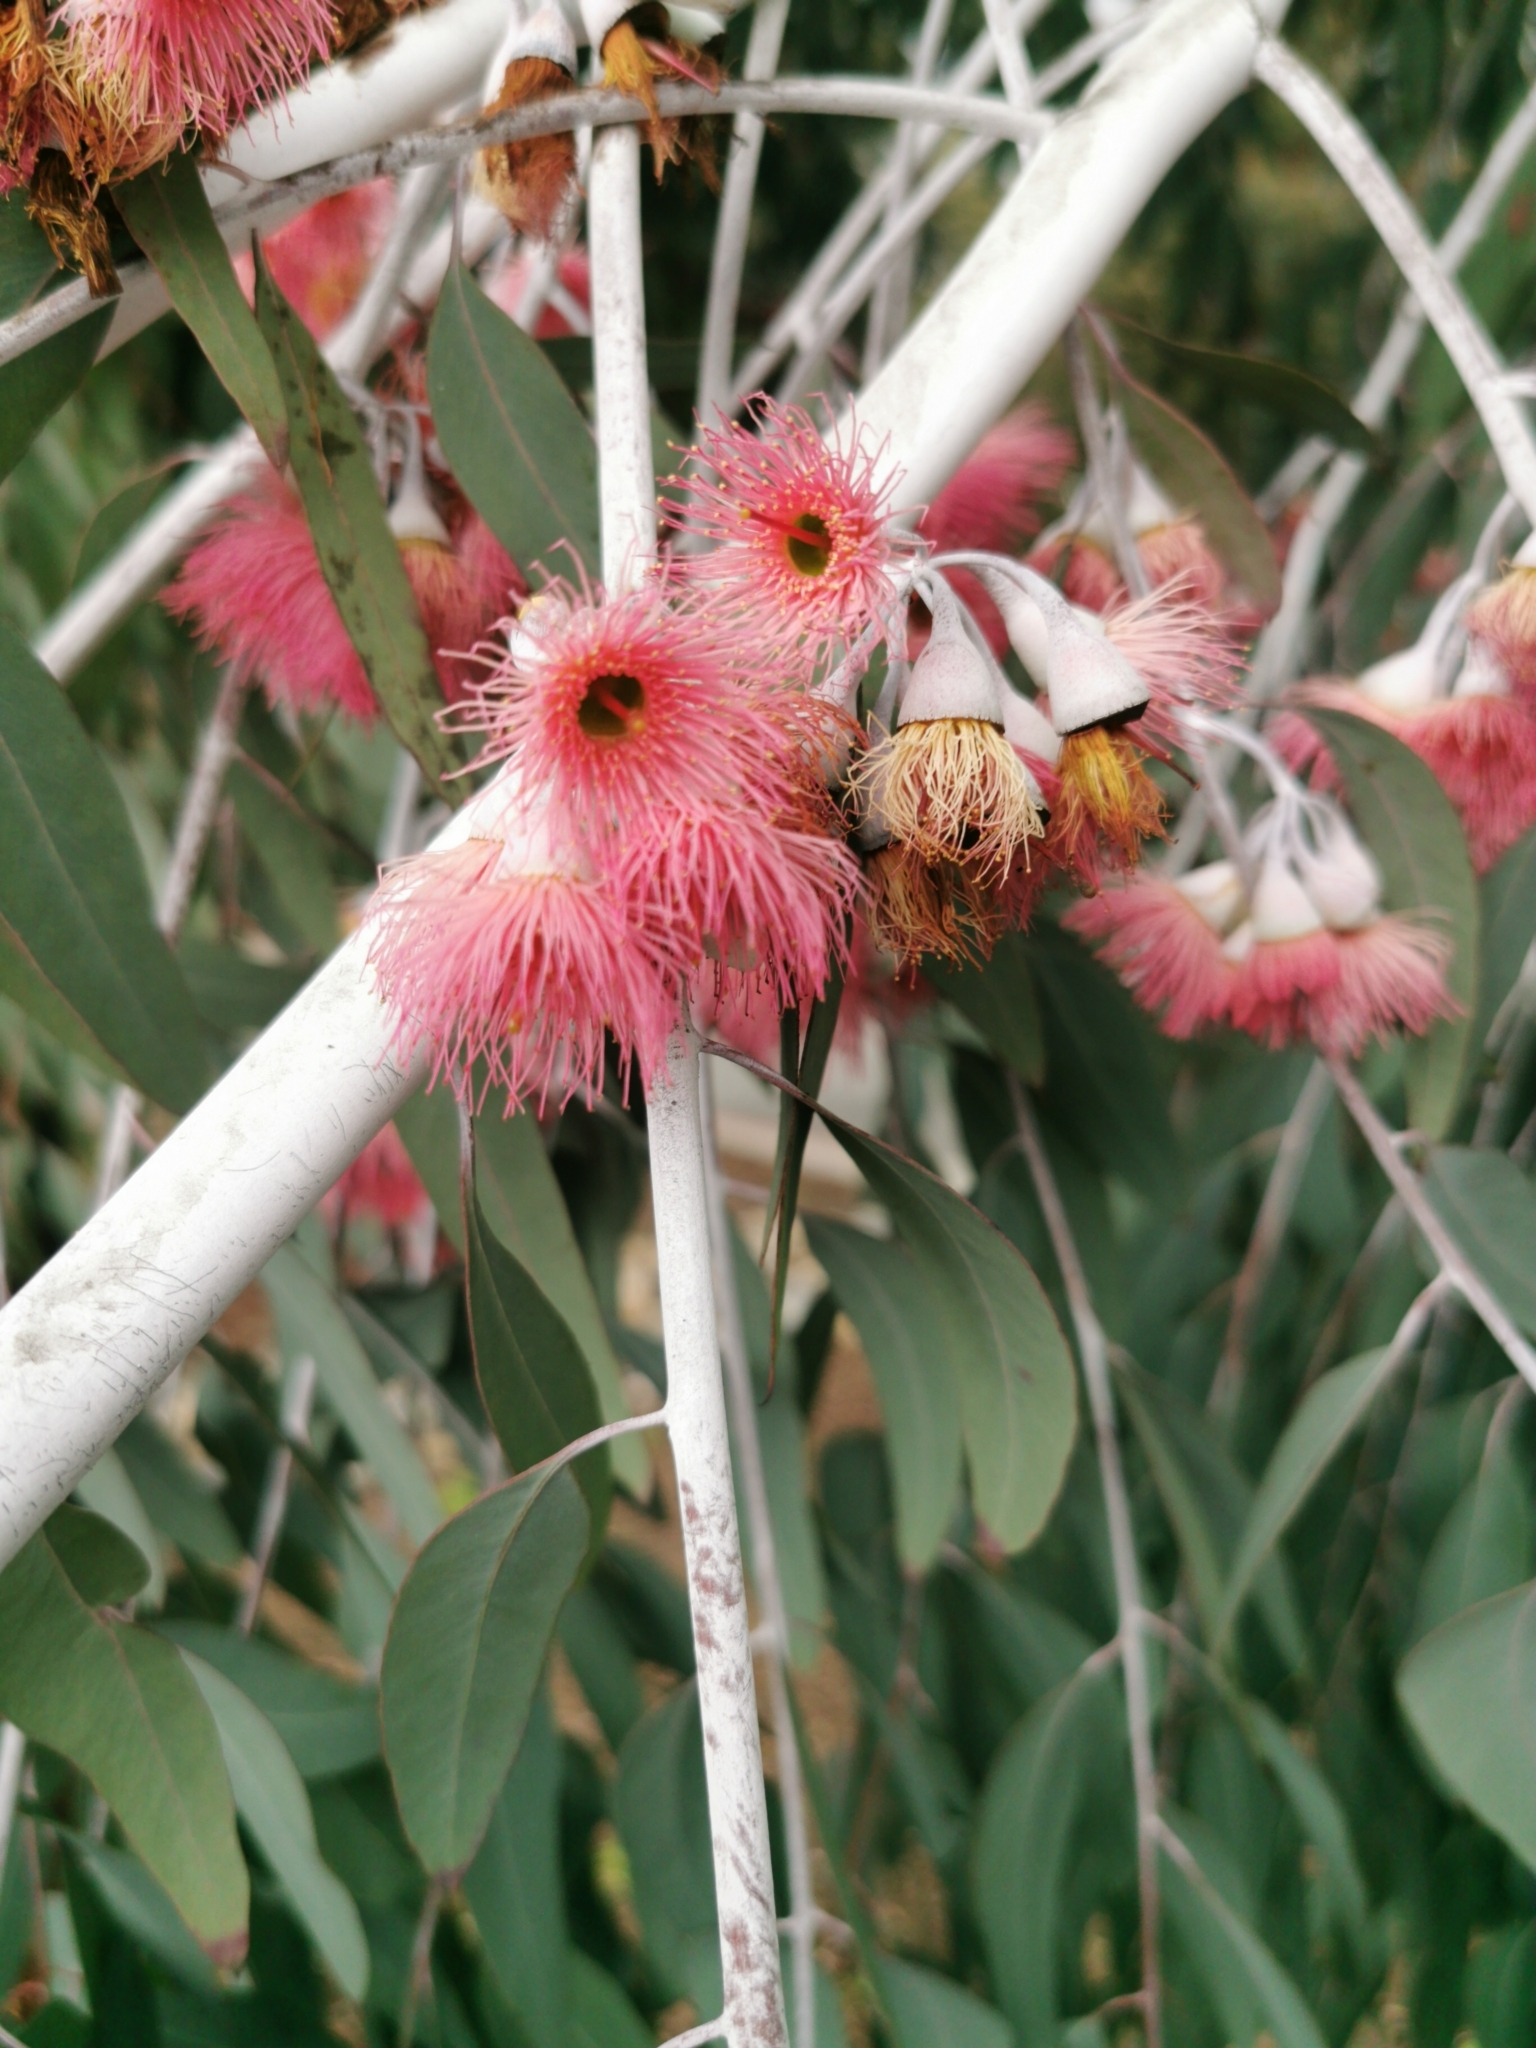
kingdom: Plantae
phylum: Tracheophyta
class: Magnoliopsida
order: Myrtales
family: Myrtaceae
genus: Eucalyptus
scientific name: Eucalyptus sideroxylon
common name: Red ironbark
